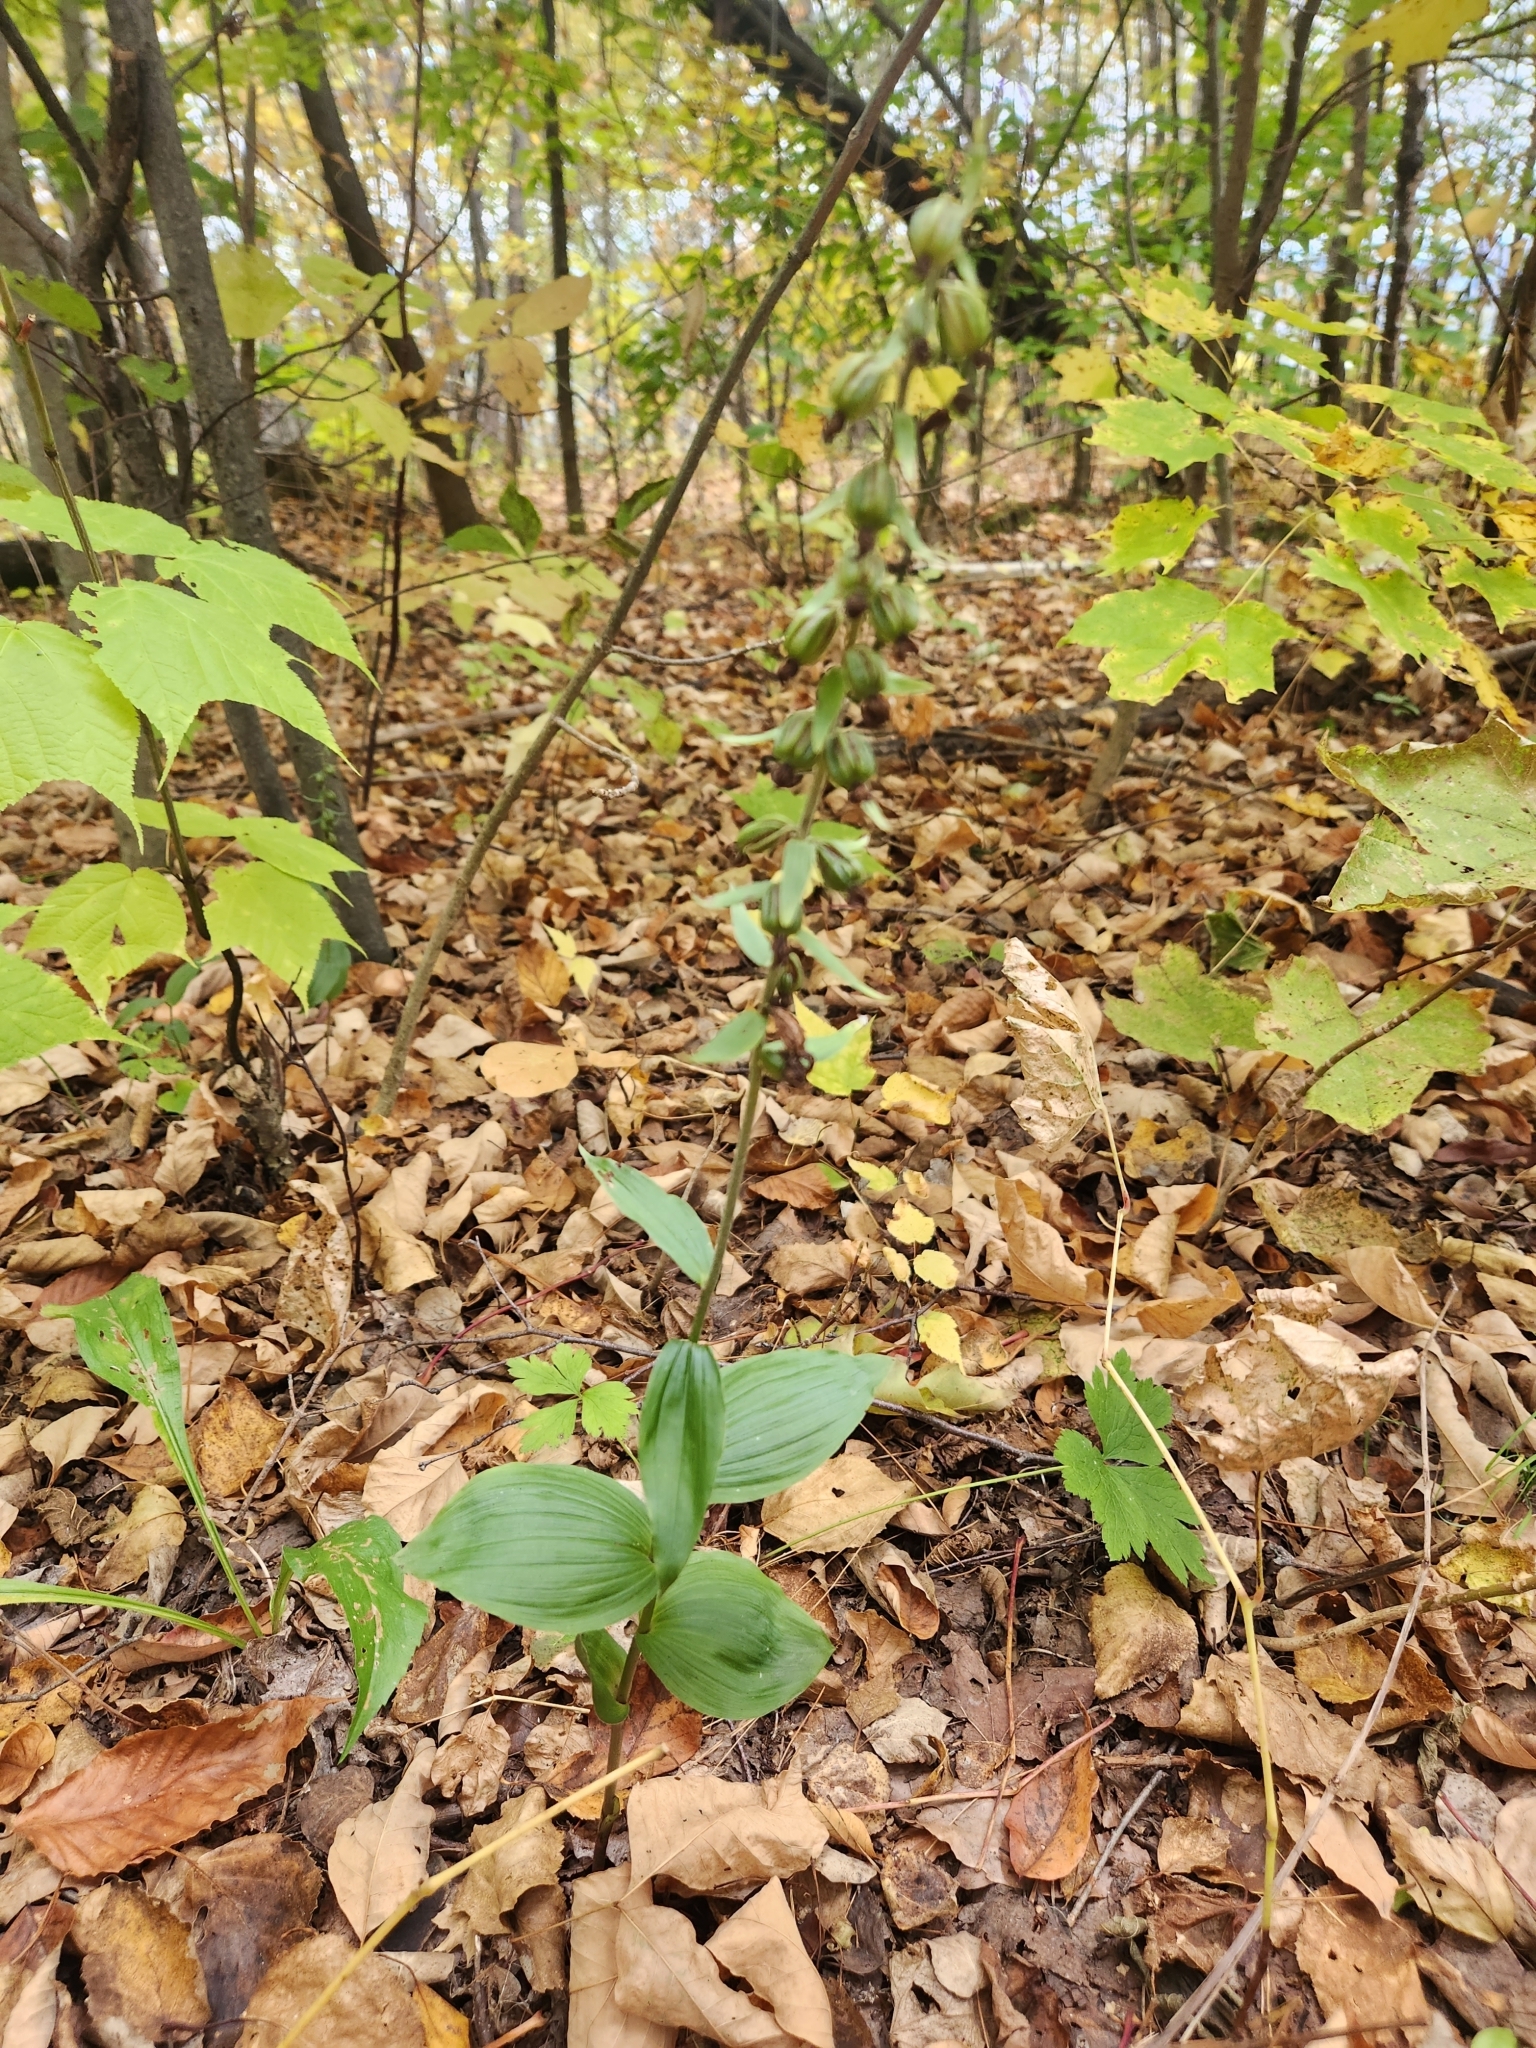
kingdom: Plantae
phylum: Tracheophyta
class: Liliopsida
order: Asparagales
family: Orchidaceae
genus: Epipactis
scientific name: Epipactis helleborine
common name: Broad-leaved helleborine
